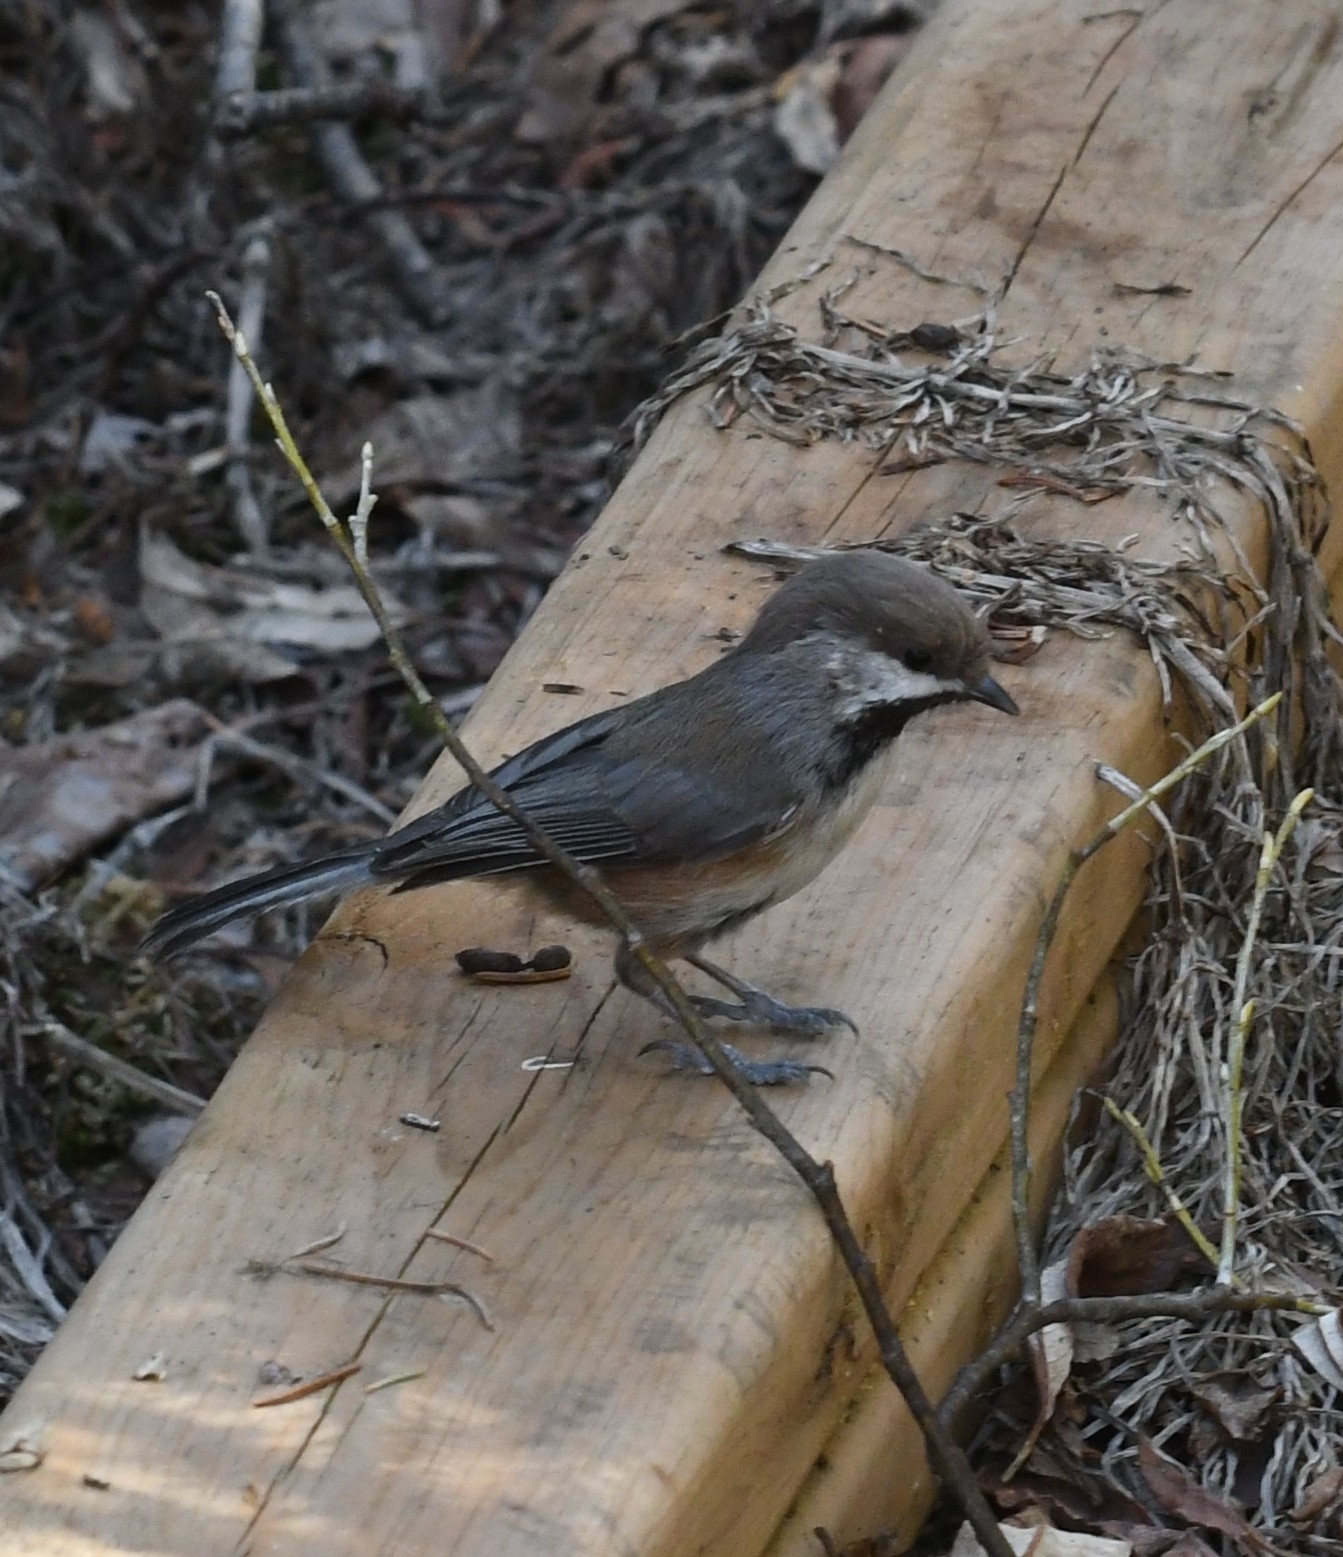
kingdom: Animalia
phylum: Chordata
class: Aves
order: Passeriformes
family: Paridae
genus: Poecile
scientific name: Poecile hudsonicus
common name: Boreal chickadee
